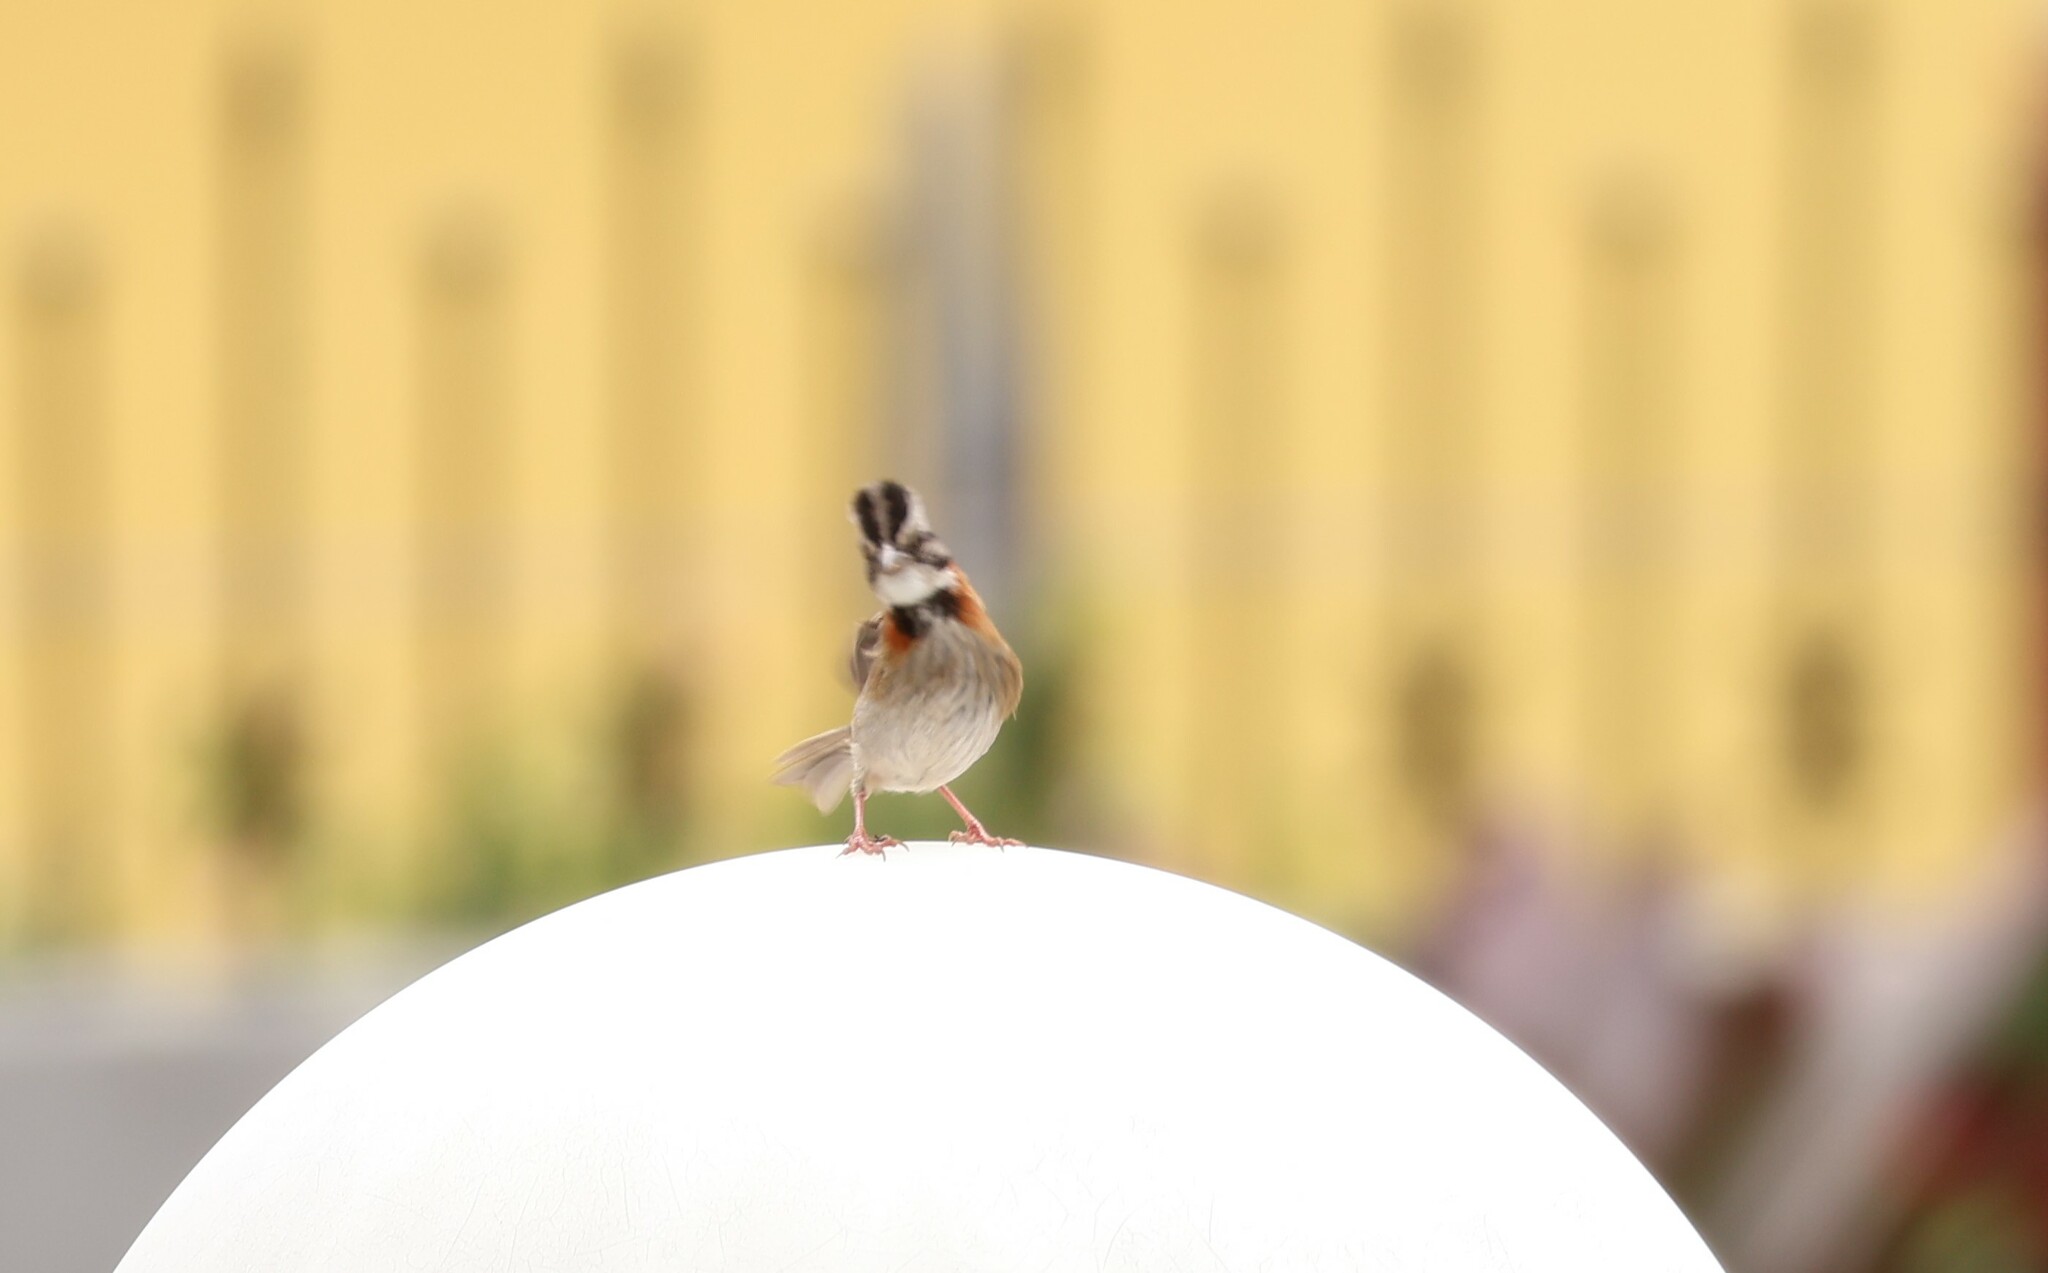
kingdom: Animalia
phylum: Chordata
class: Aves
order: Passeriformes
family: Passerellidae
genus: Zonotrichia
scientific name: Zonotrichia capensis
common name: Rufous-collared sparrow
